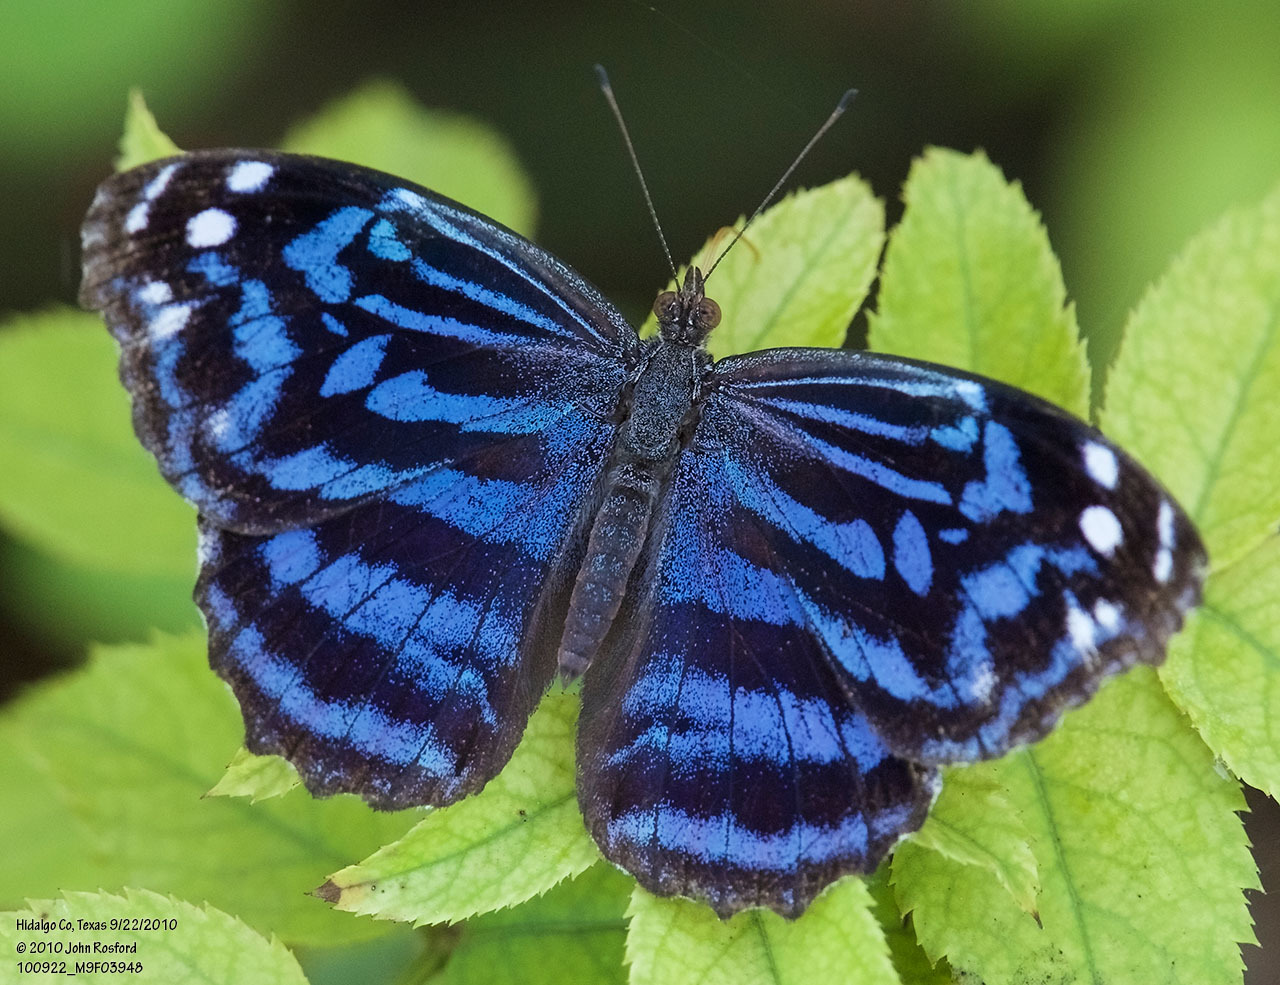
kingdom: Animalia
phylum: Arthropoda
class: Insecta
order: Lepidoptera
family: Nymphalidae
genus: Myscelia
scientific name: Myscelia ethusa
